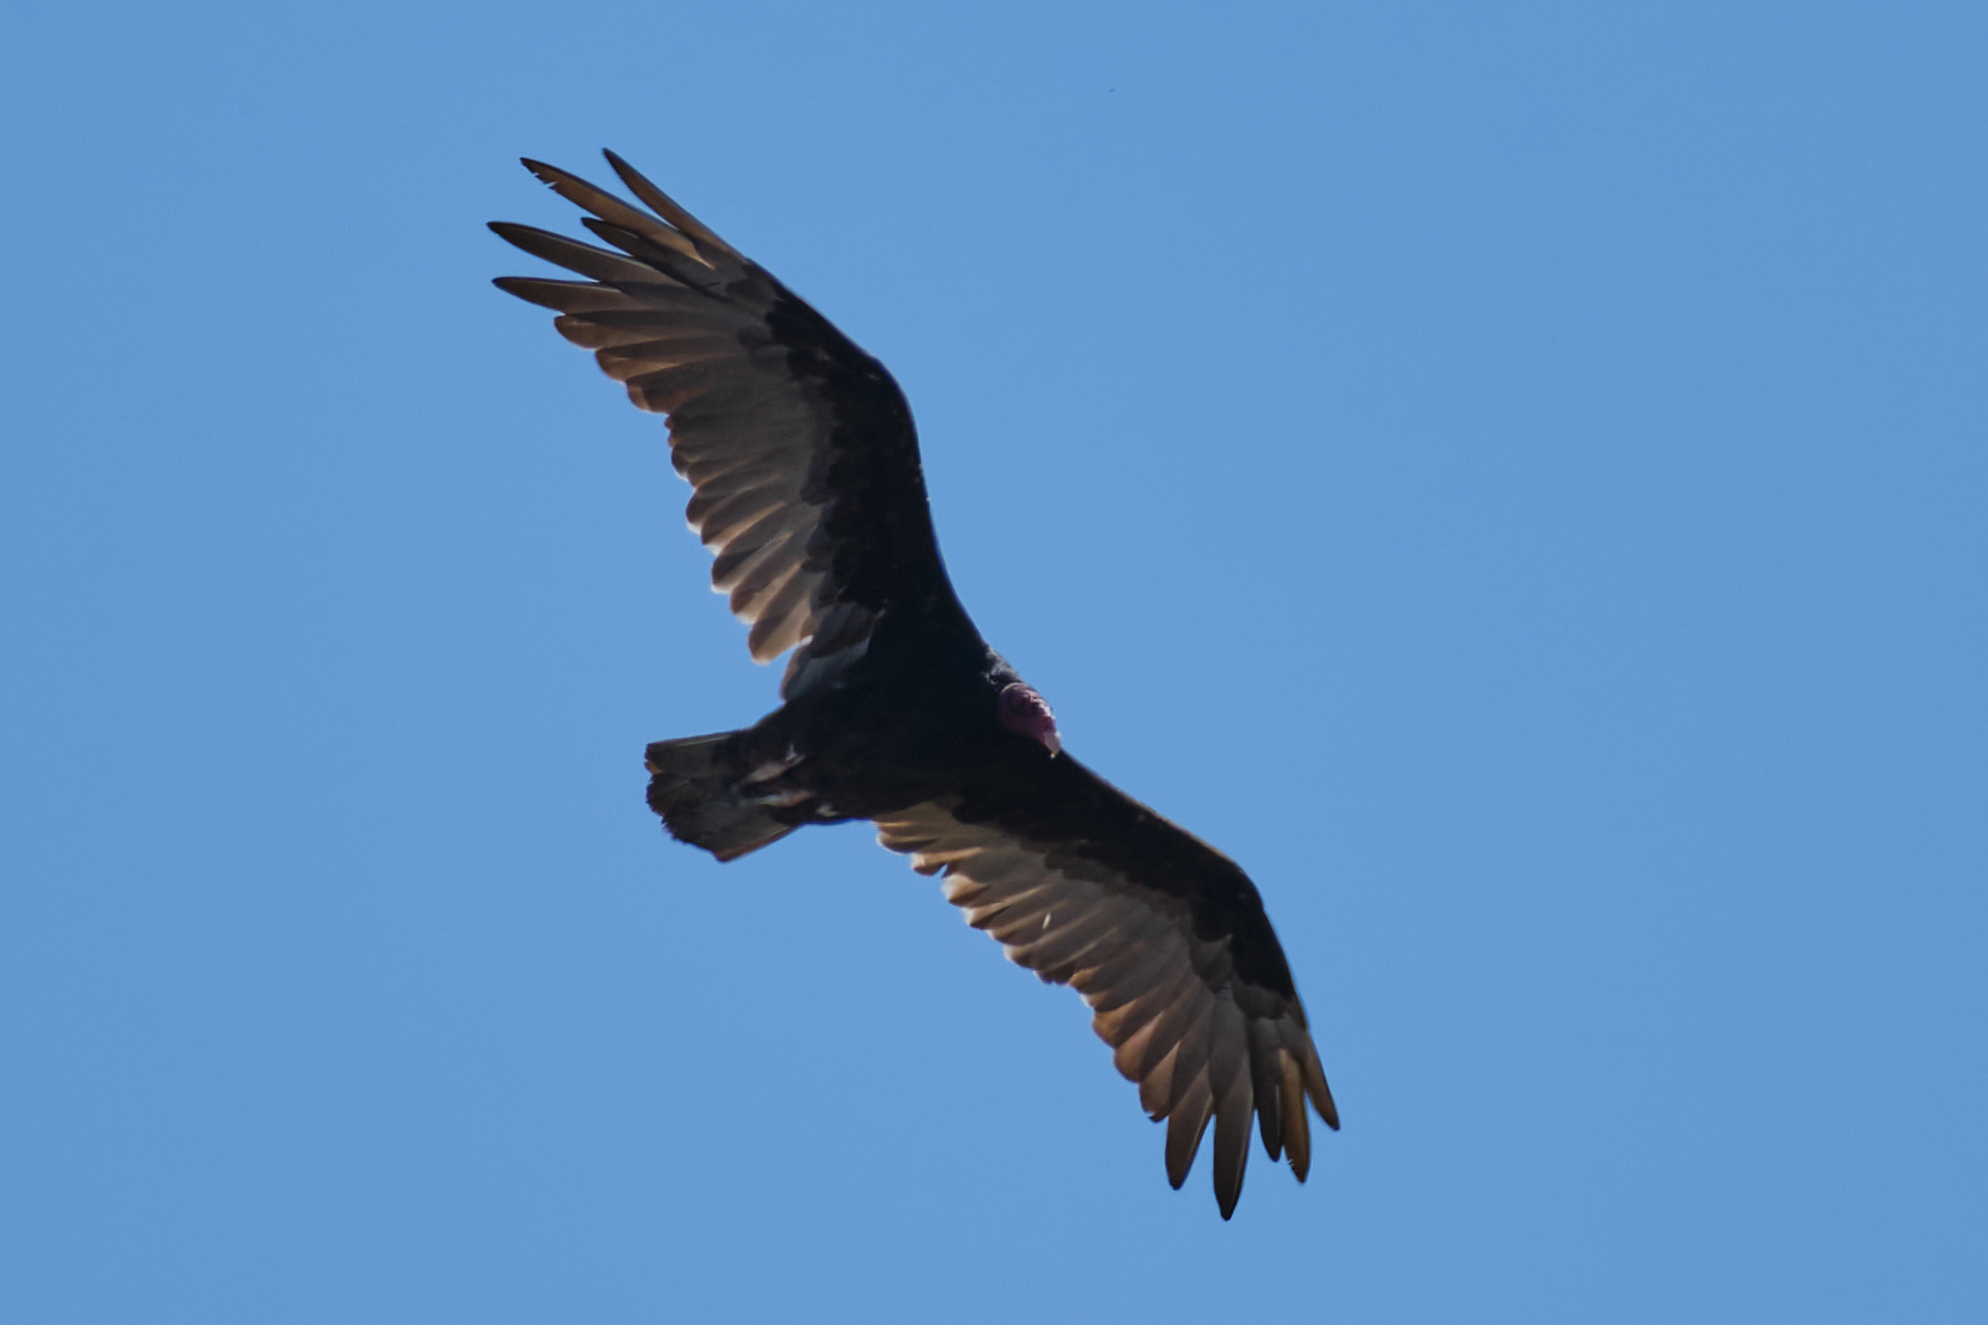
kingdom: Animalia
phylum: Chordata
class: Aves
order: Accipitriformes
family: Cathartidae
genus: Cathartes
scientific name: Cathartes aura
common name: Turkey vulture
